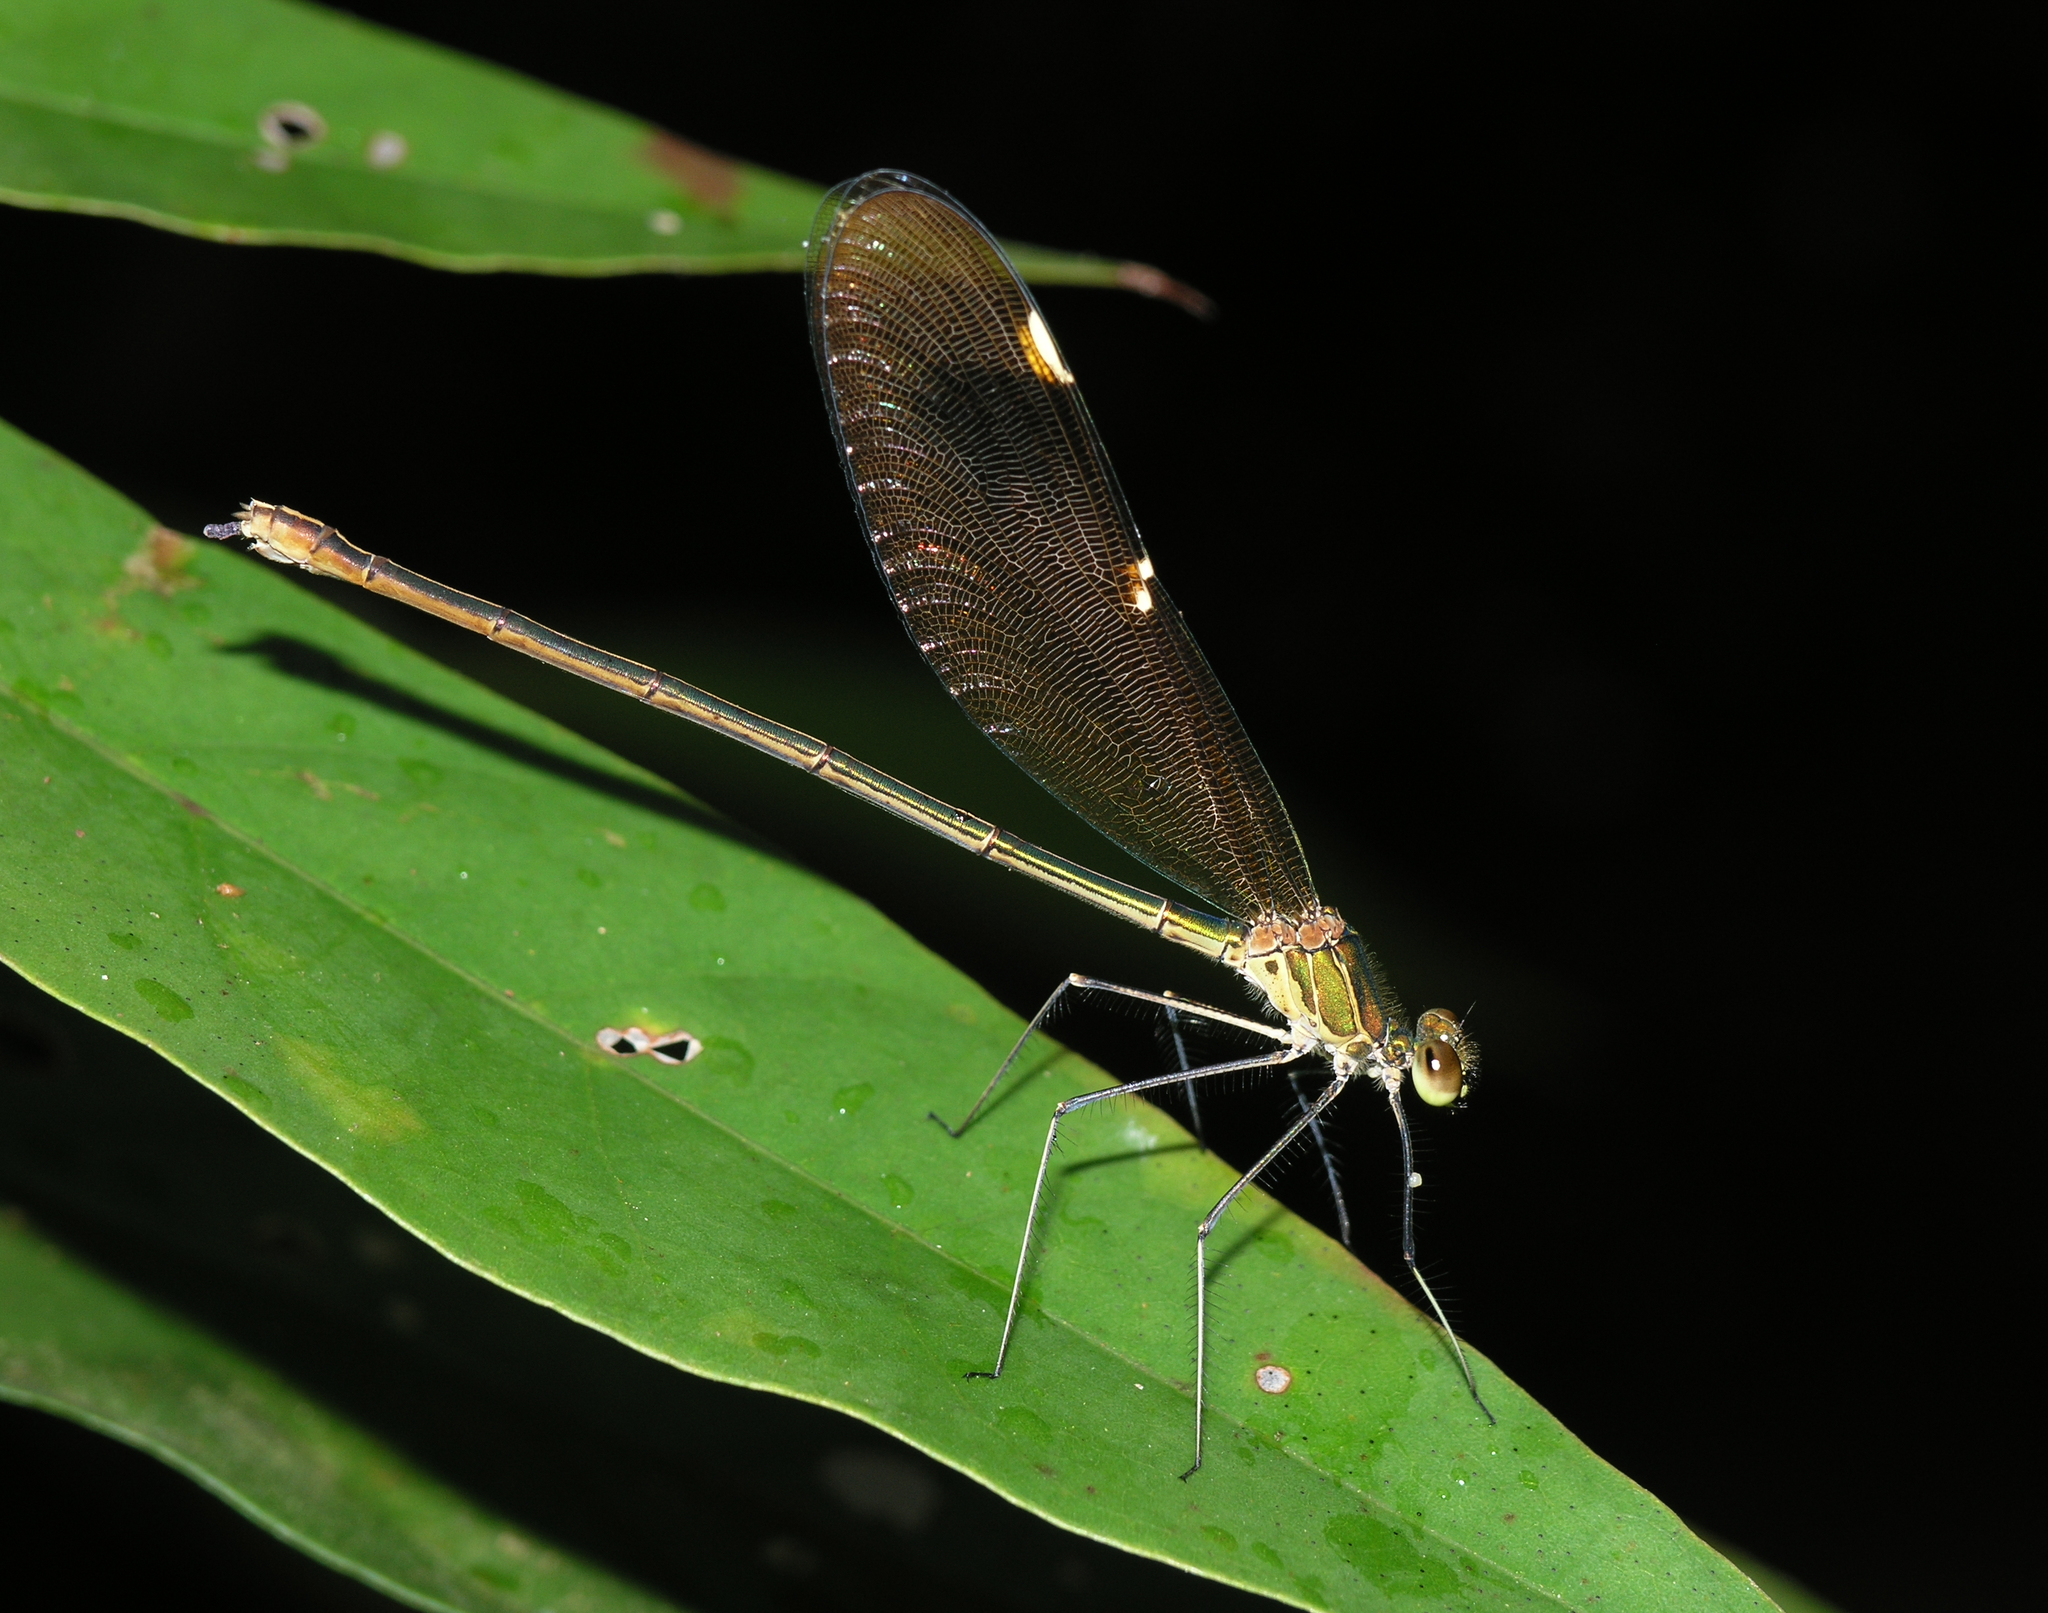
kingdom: Animalia
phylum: Arthropoda
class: Insecta
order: Odonata
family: Calopterygidae
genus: Neurobasis
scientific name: Neurobasis chinensis
